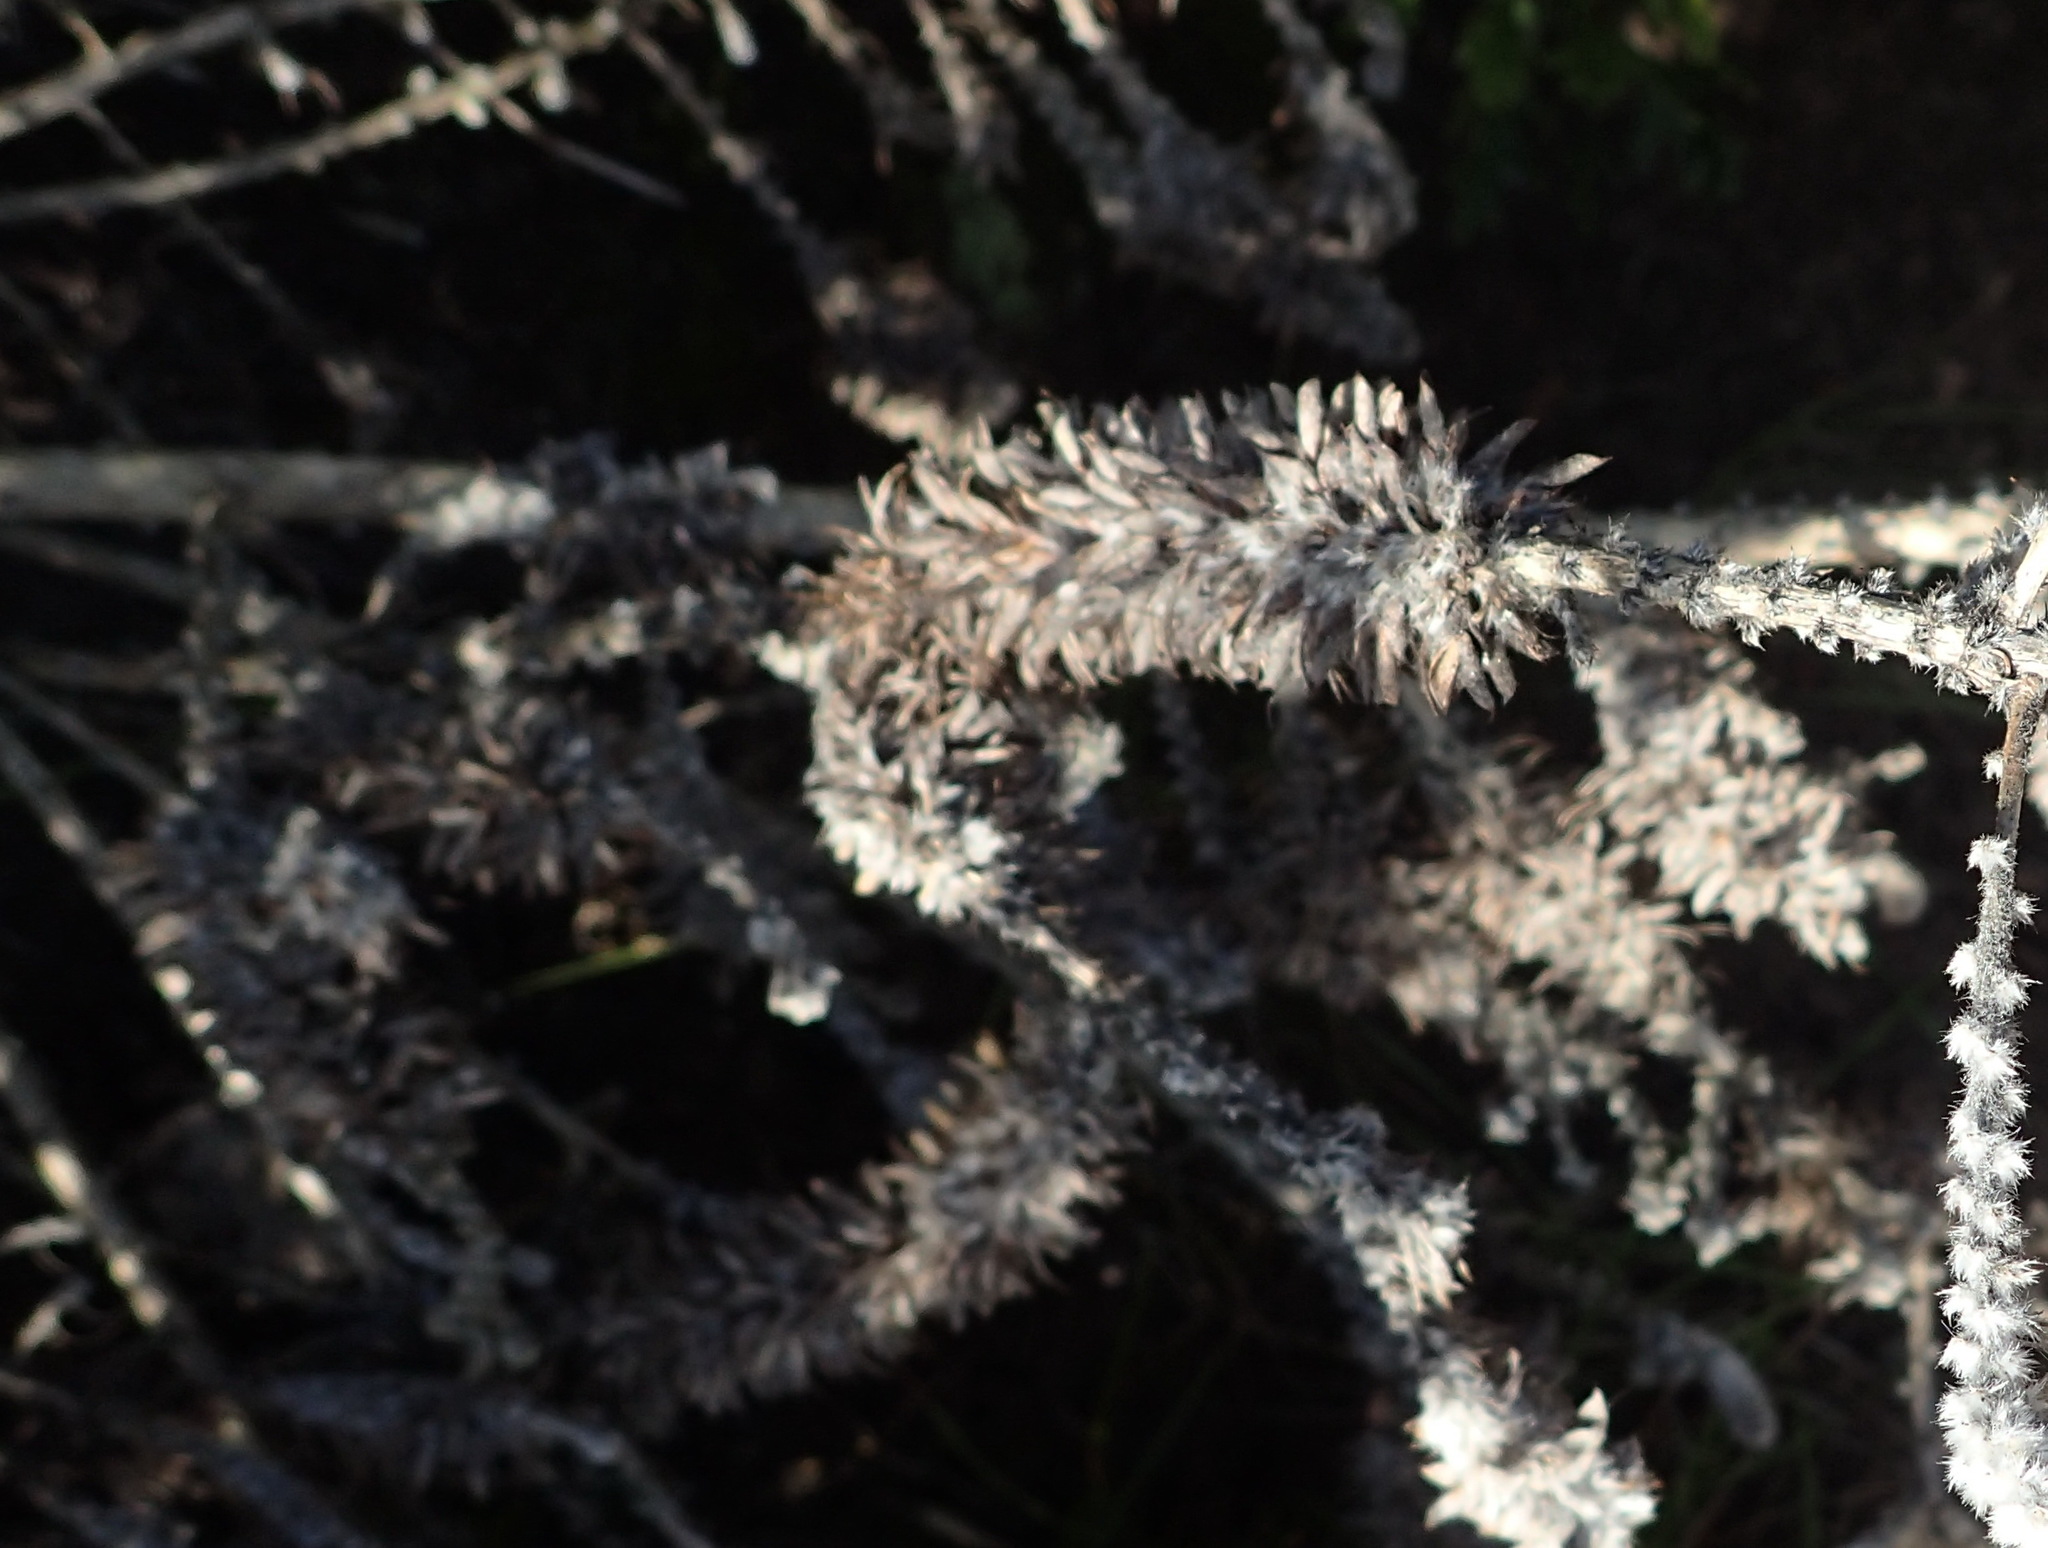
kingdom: Plantae
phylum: Tracheophyta
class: Magnoliopsida
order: Fabales
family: Fabaceae
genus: Aspalathus
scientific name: Aspalathus alopecurus
